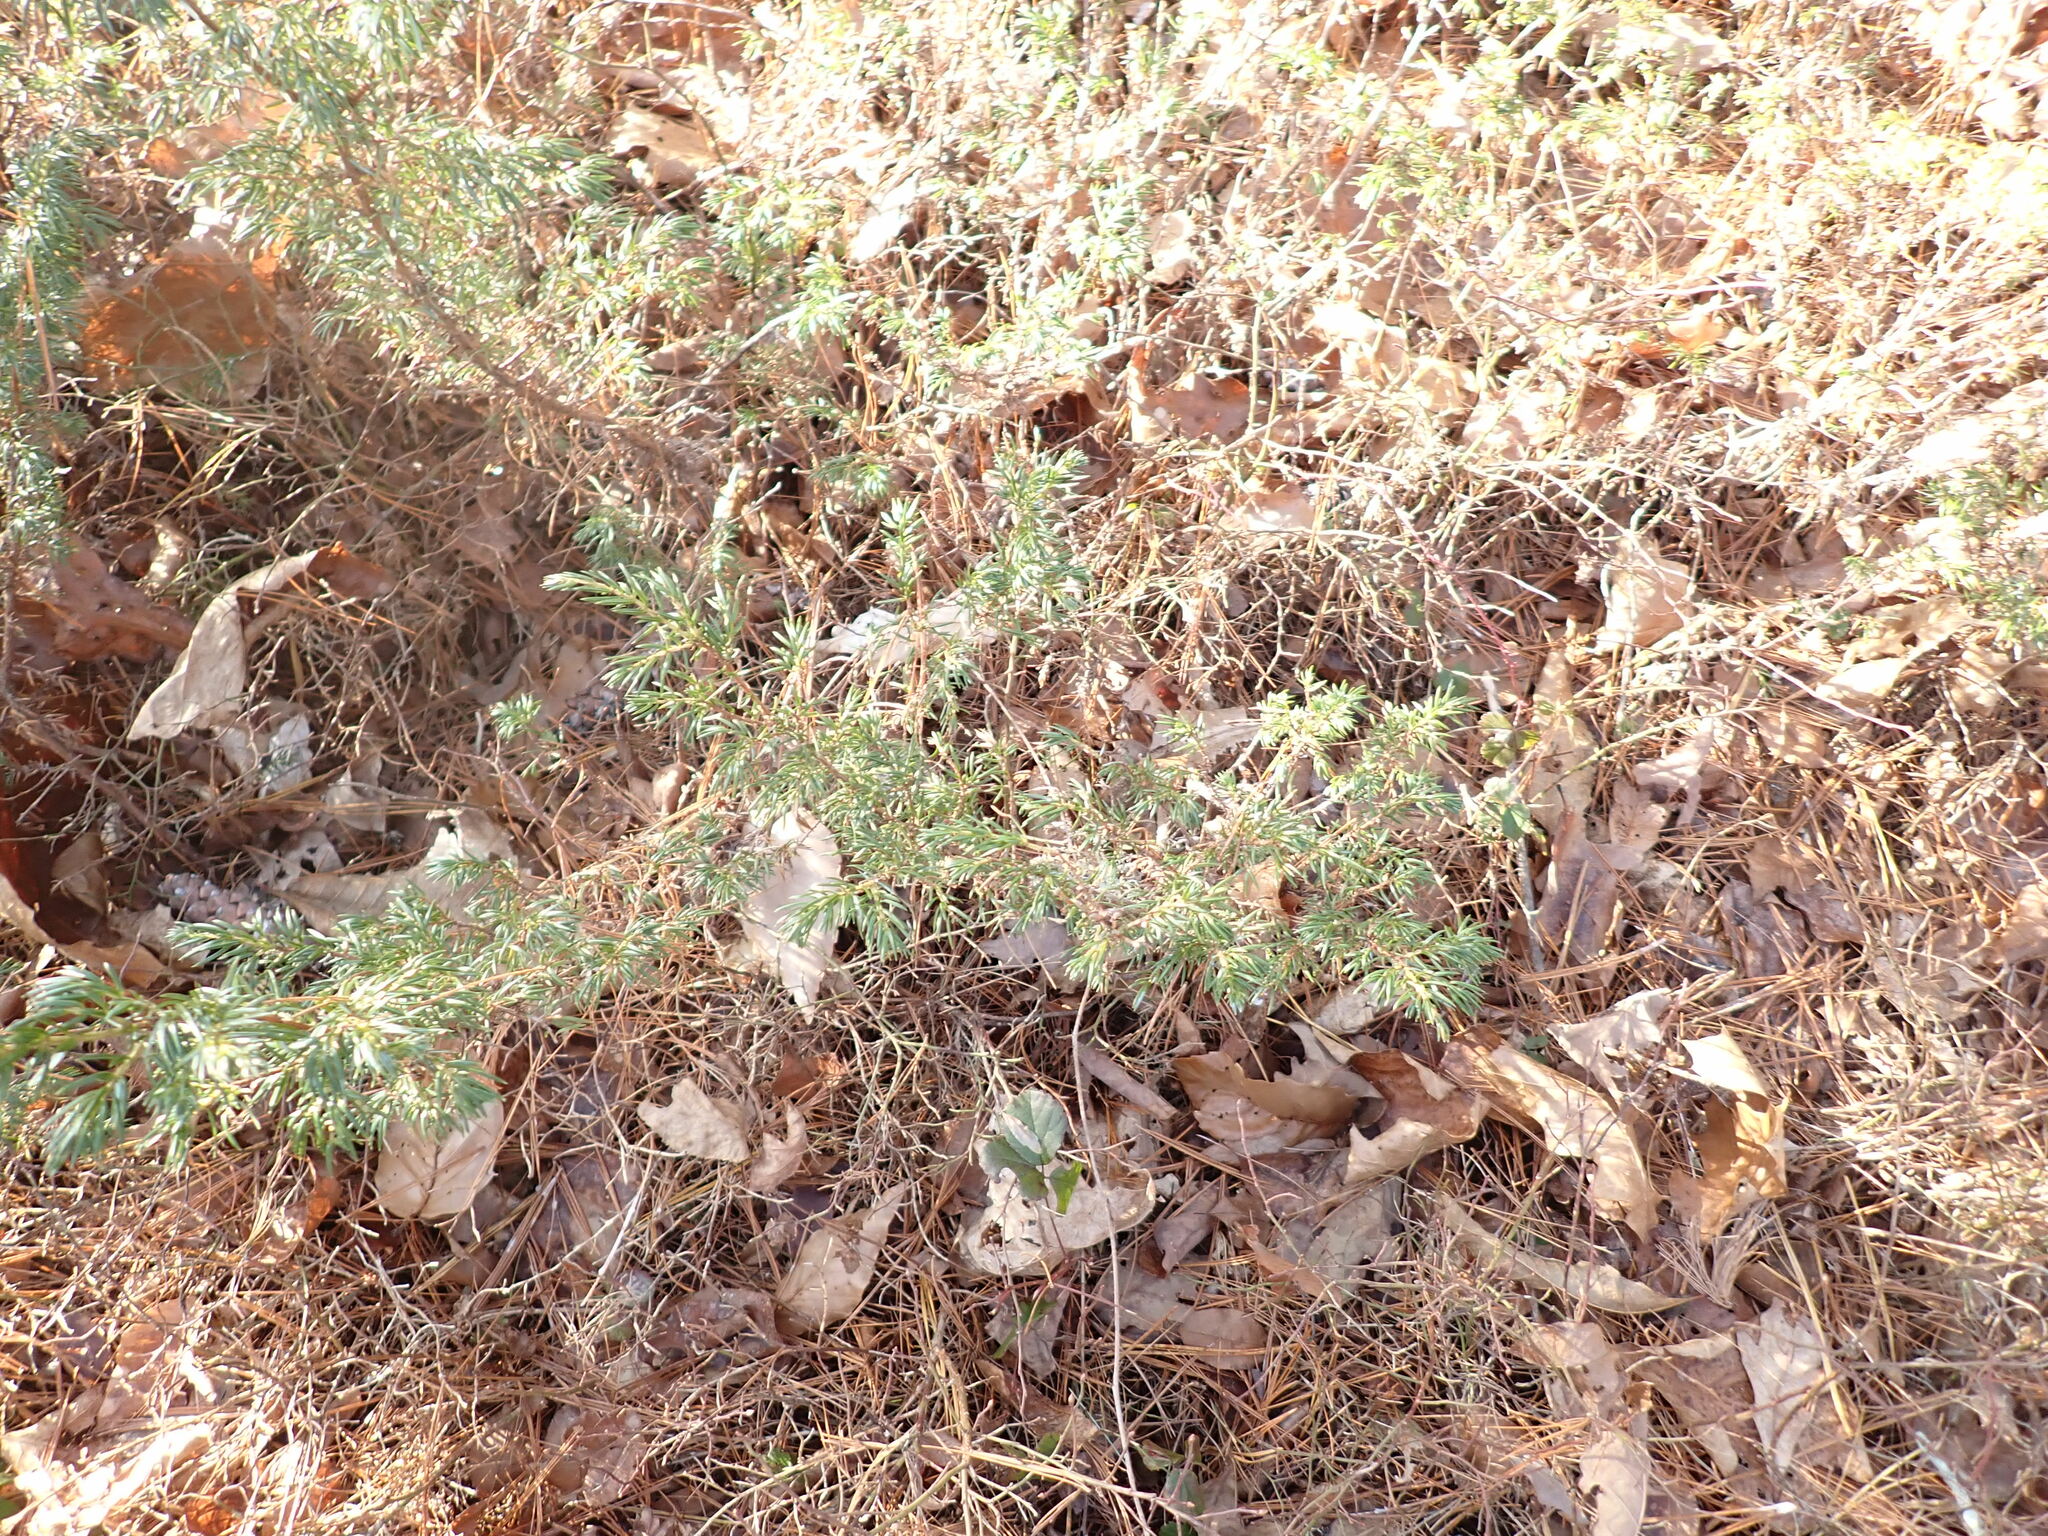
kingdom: Plantae
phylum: Tracheophyta
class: Pinopsida
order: Pinales
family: Cupressaceae
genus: Juniperus
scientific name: Juniperus communis
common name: Common juniper
